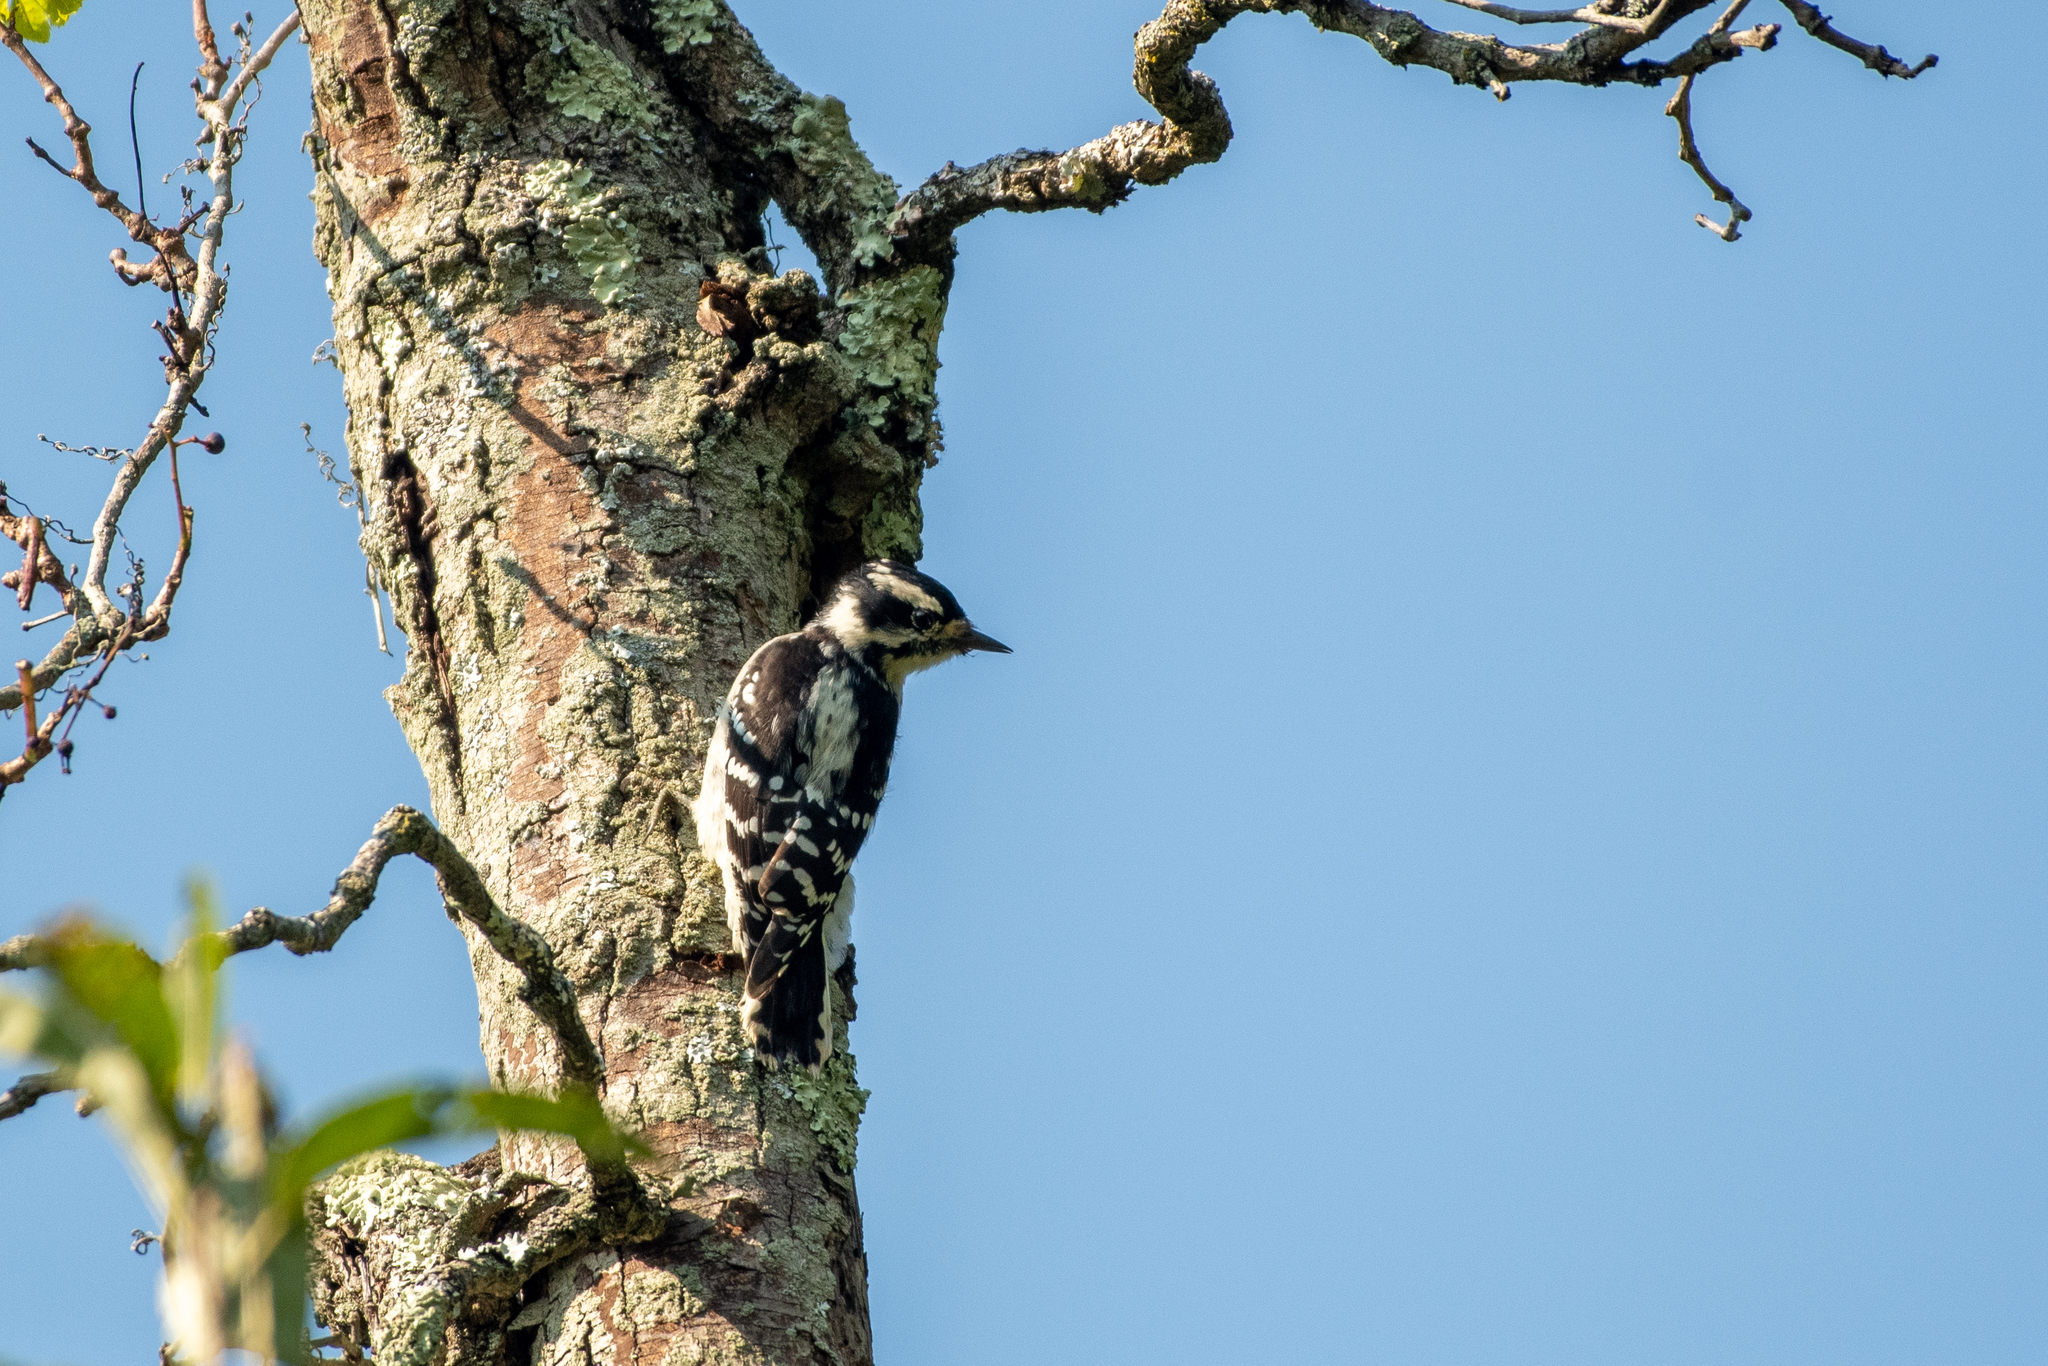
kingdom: Animalia
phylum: Chordata
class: Aves
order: Piciformes
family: Picidae
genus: Dryobates
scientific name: Dryobates pubescens
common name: Downy woodpecker
